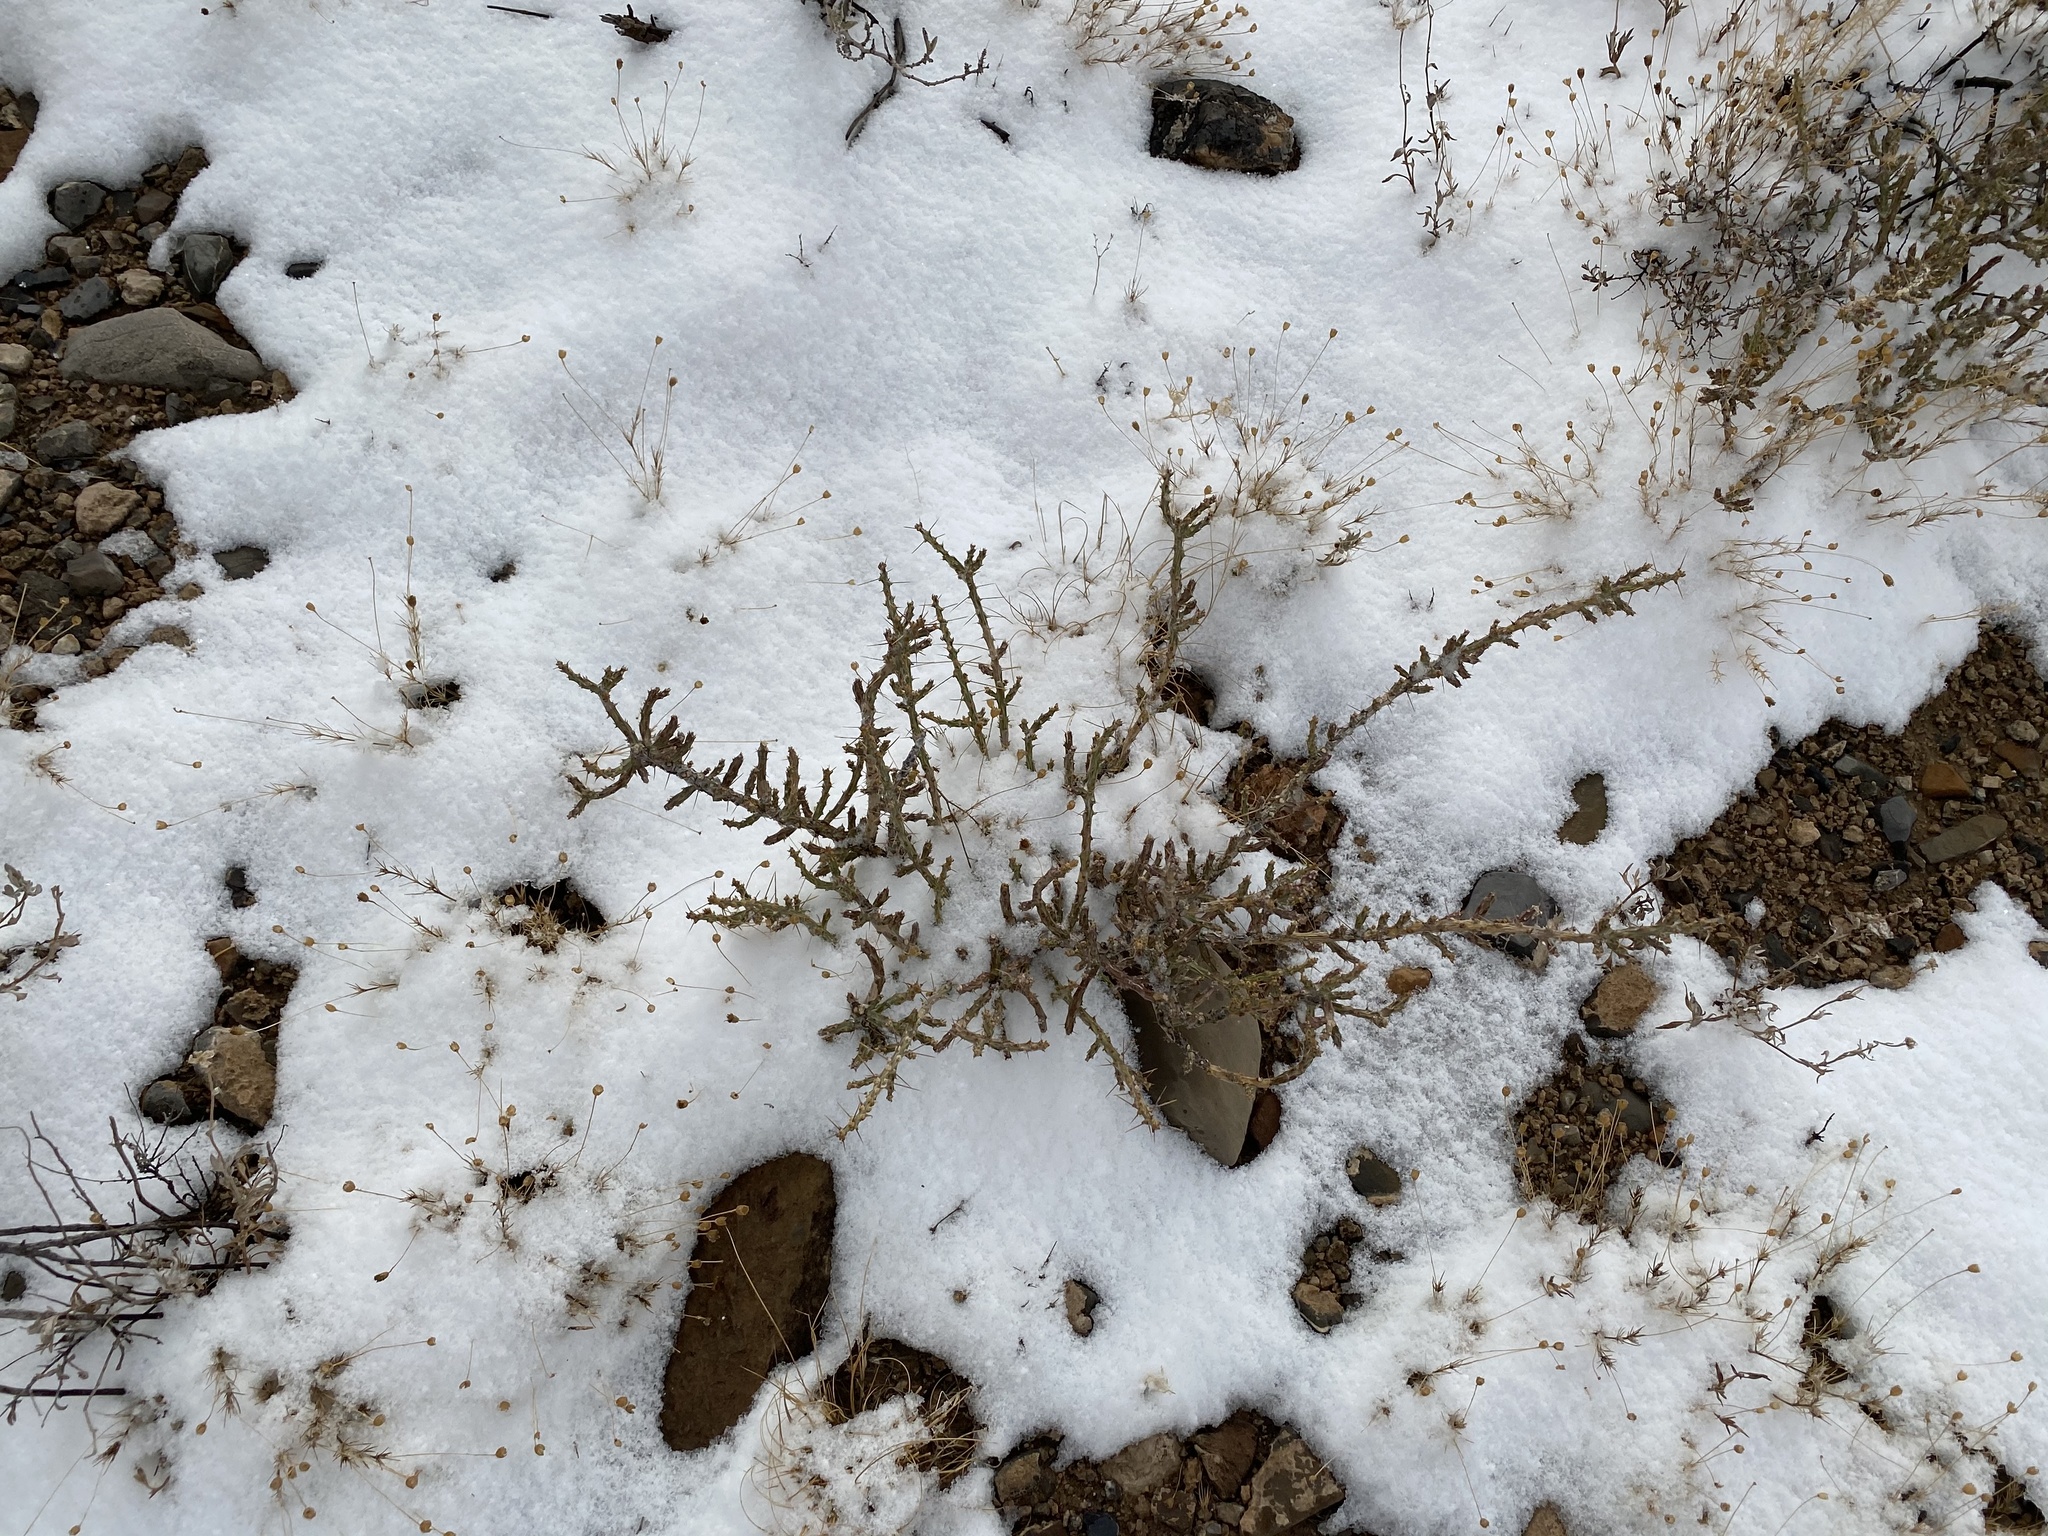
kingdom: Plantae
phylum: Tracheophyta
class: Magnoliopsida
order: Caryophyllales
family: Cactaceae
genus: Cylindropuntia
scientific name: Cylindropuntia leptocaulis
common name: Christmas cactus
